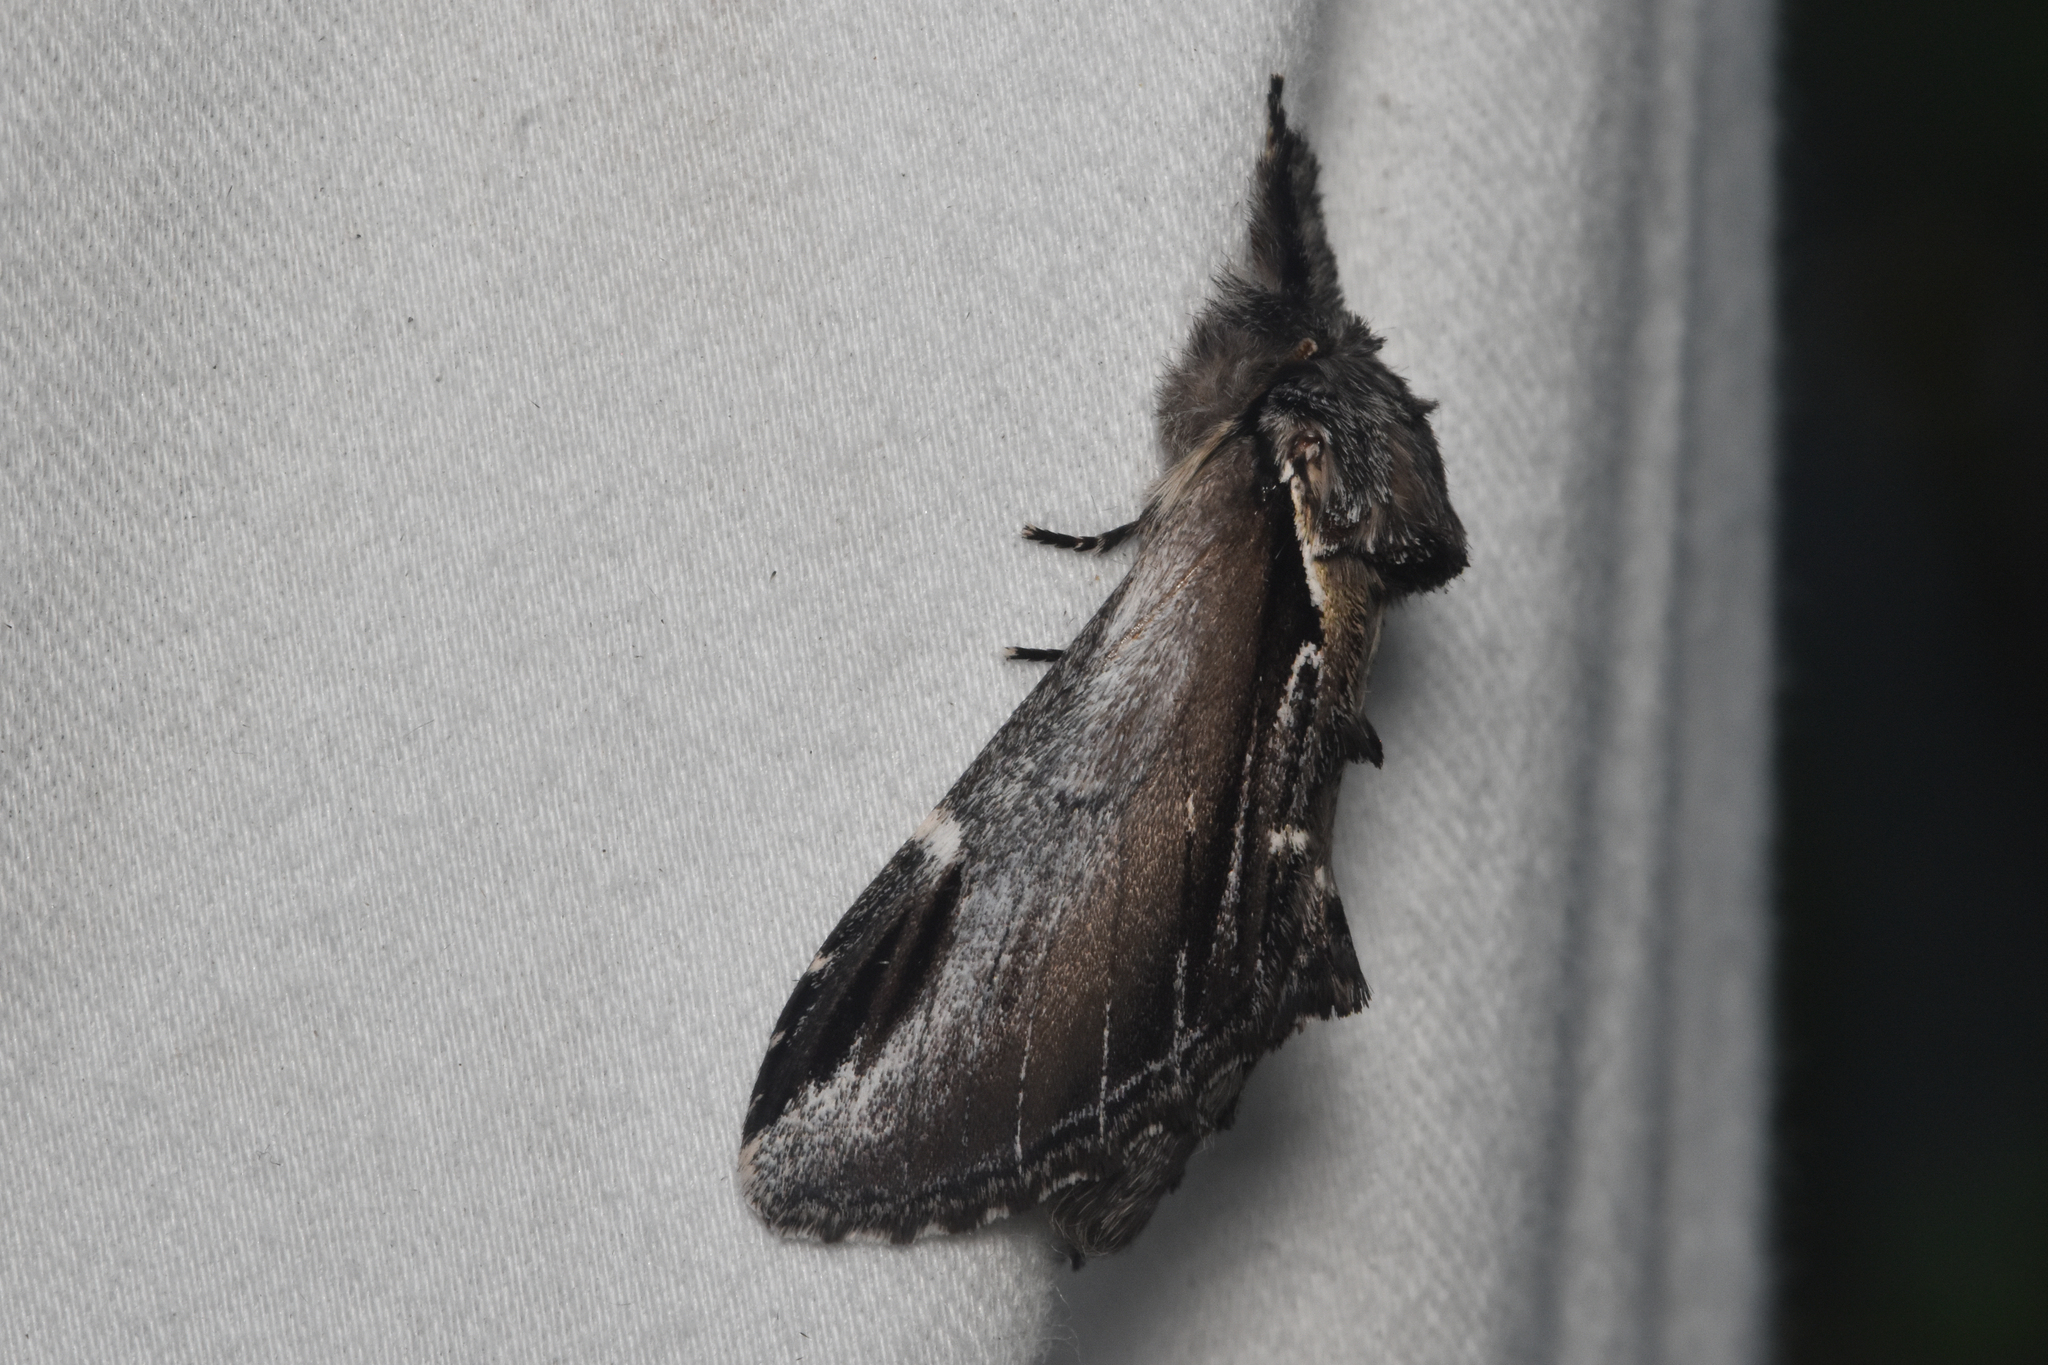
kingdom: Animalia
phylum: Arthropoda
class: Insecta
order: Lepidoptera
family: Notodontidae
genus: Pheosia
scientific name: Pheosia rimosa
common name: Black-rimmed prominent
